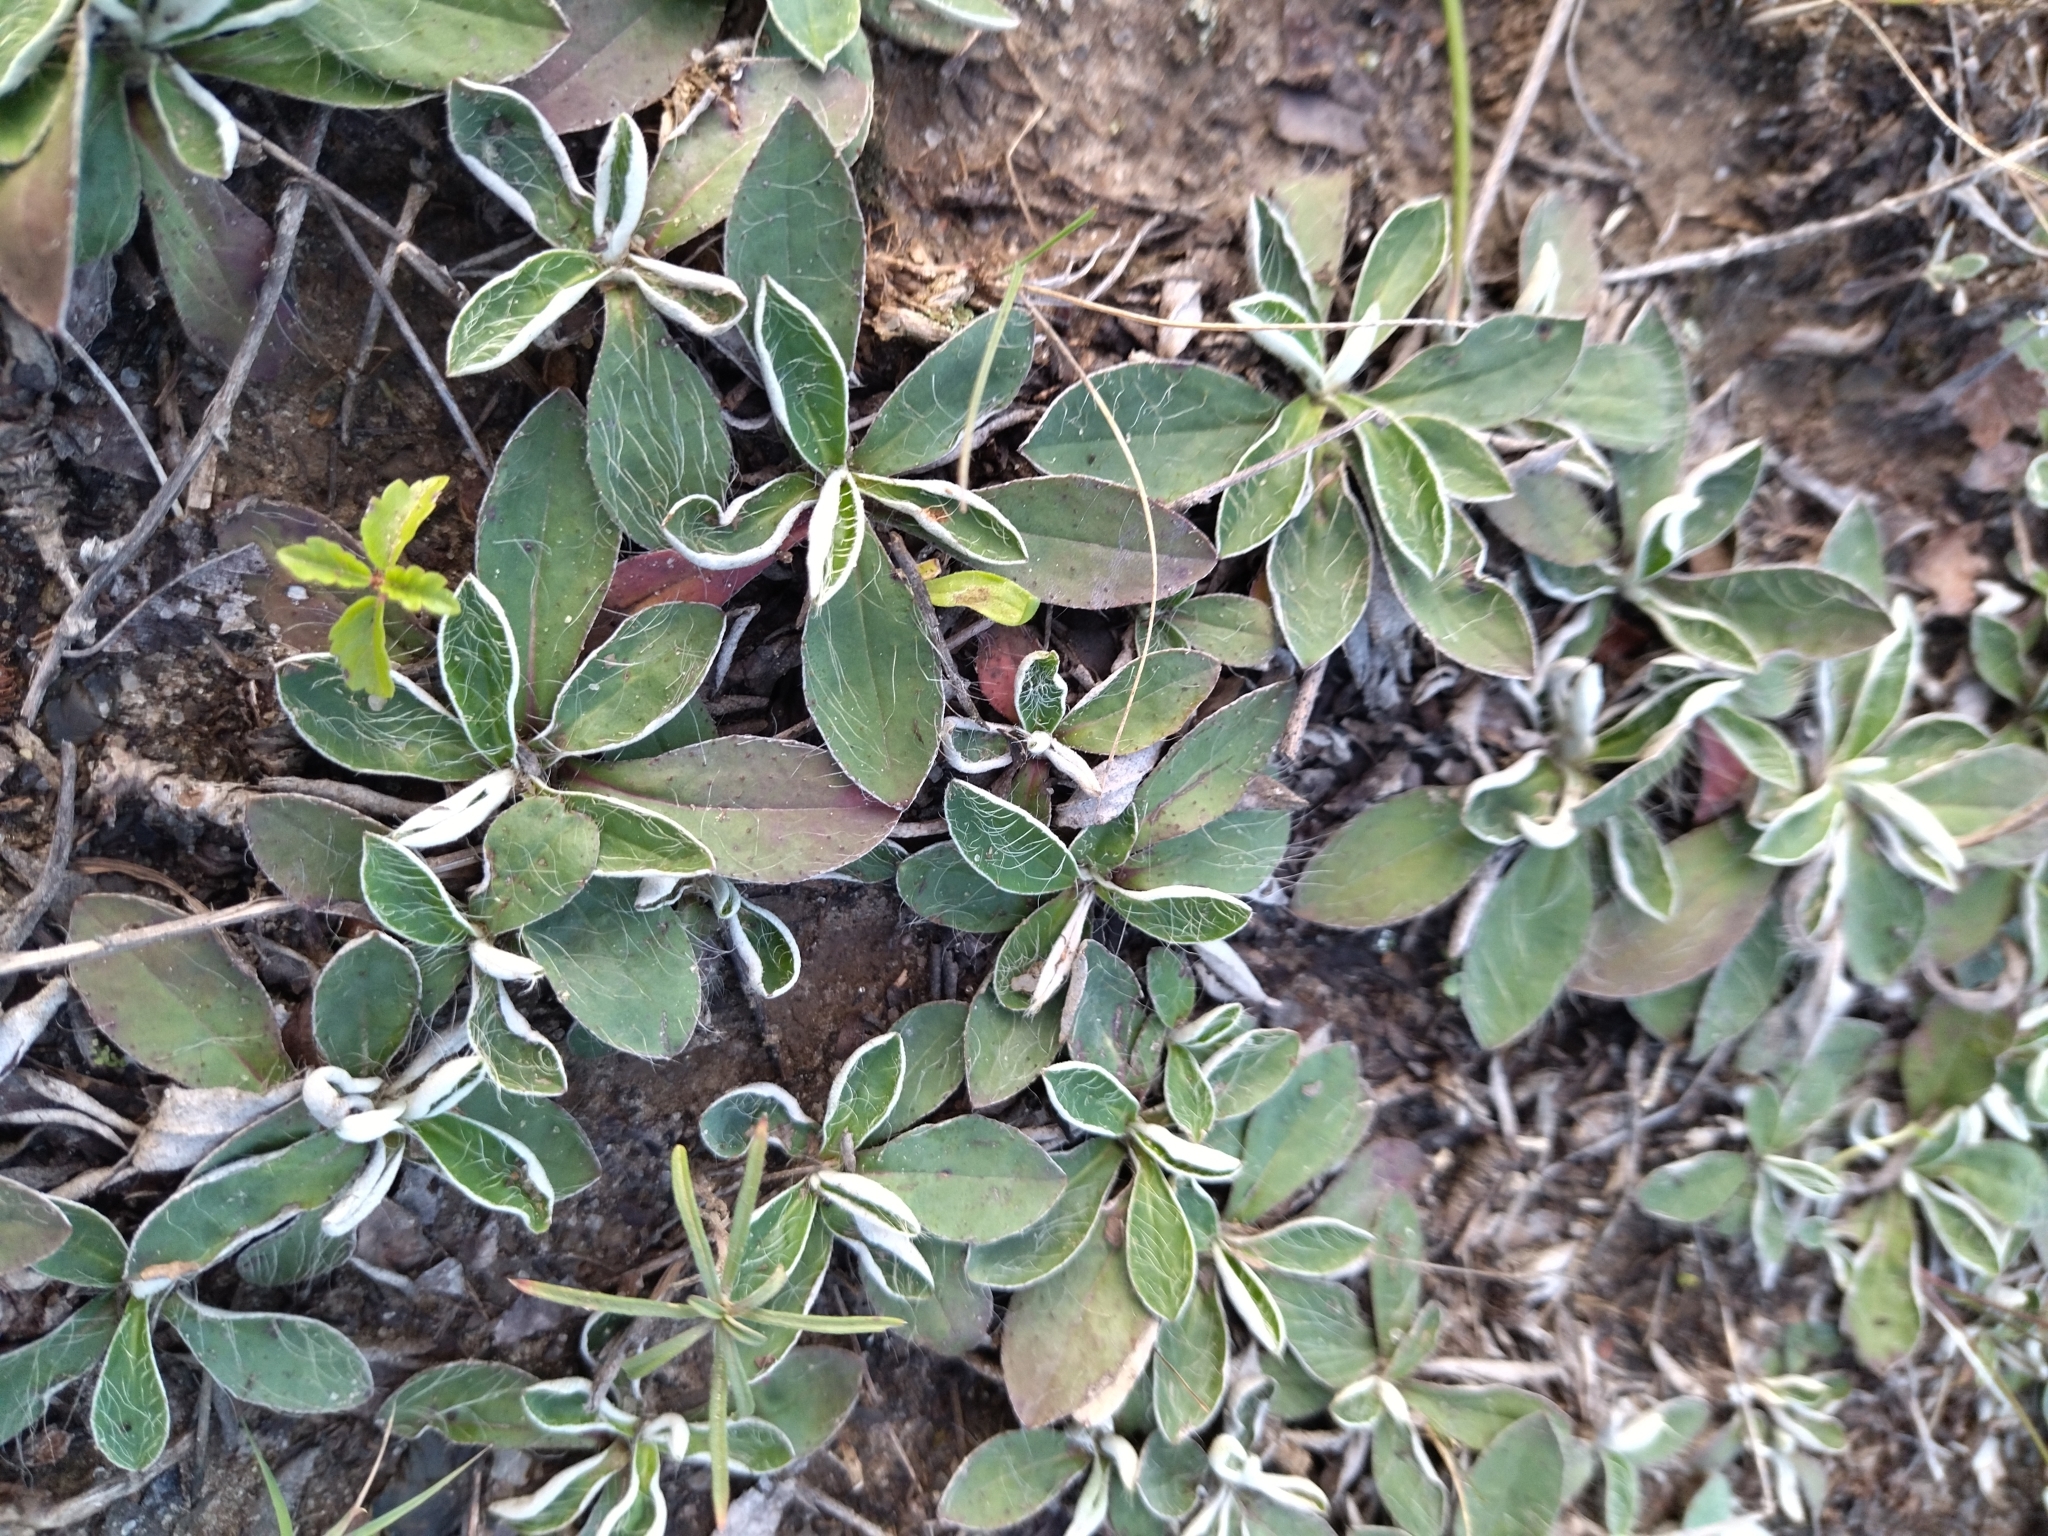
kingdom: Plantae
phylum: Tracheophyta
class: Magnoliopsida
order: Asterales
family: Asteraceae
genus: Pilosella
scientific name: Pilosella officinarum
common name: Mouse-ear hawkweed
